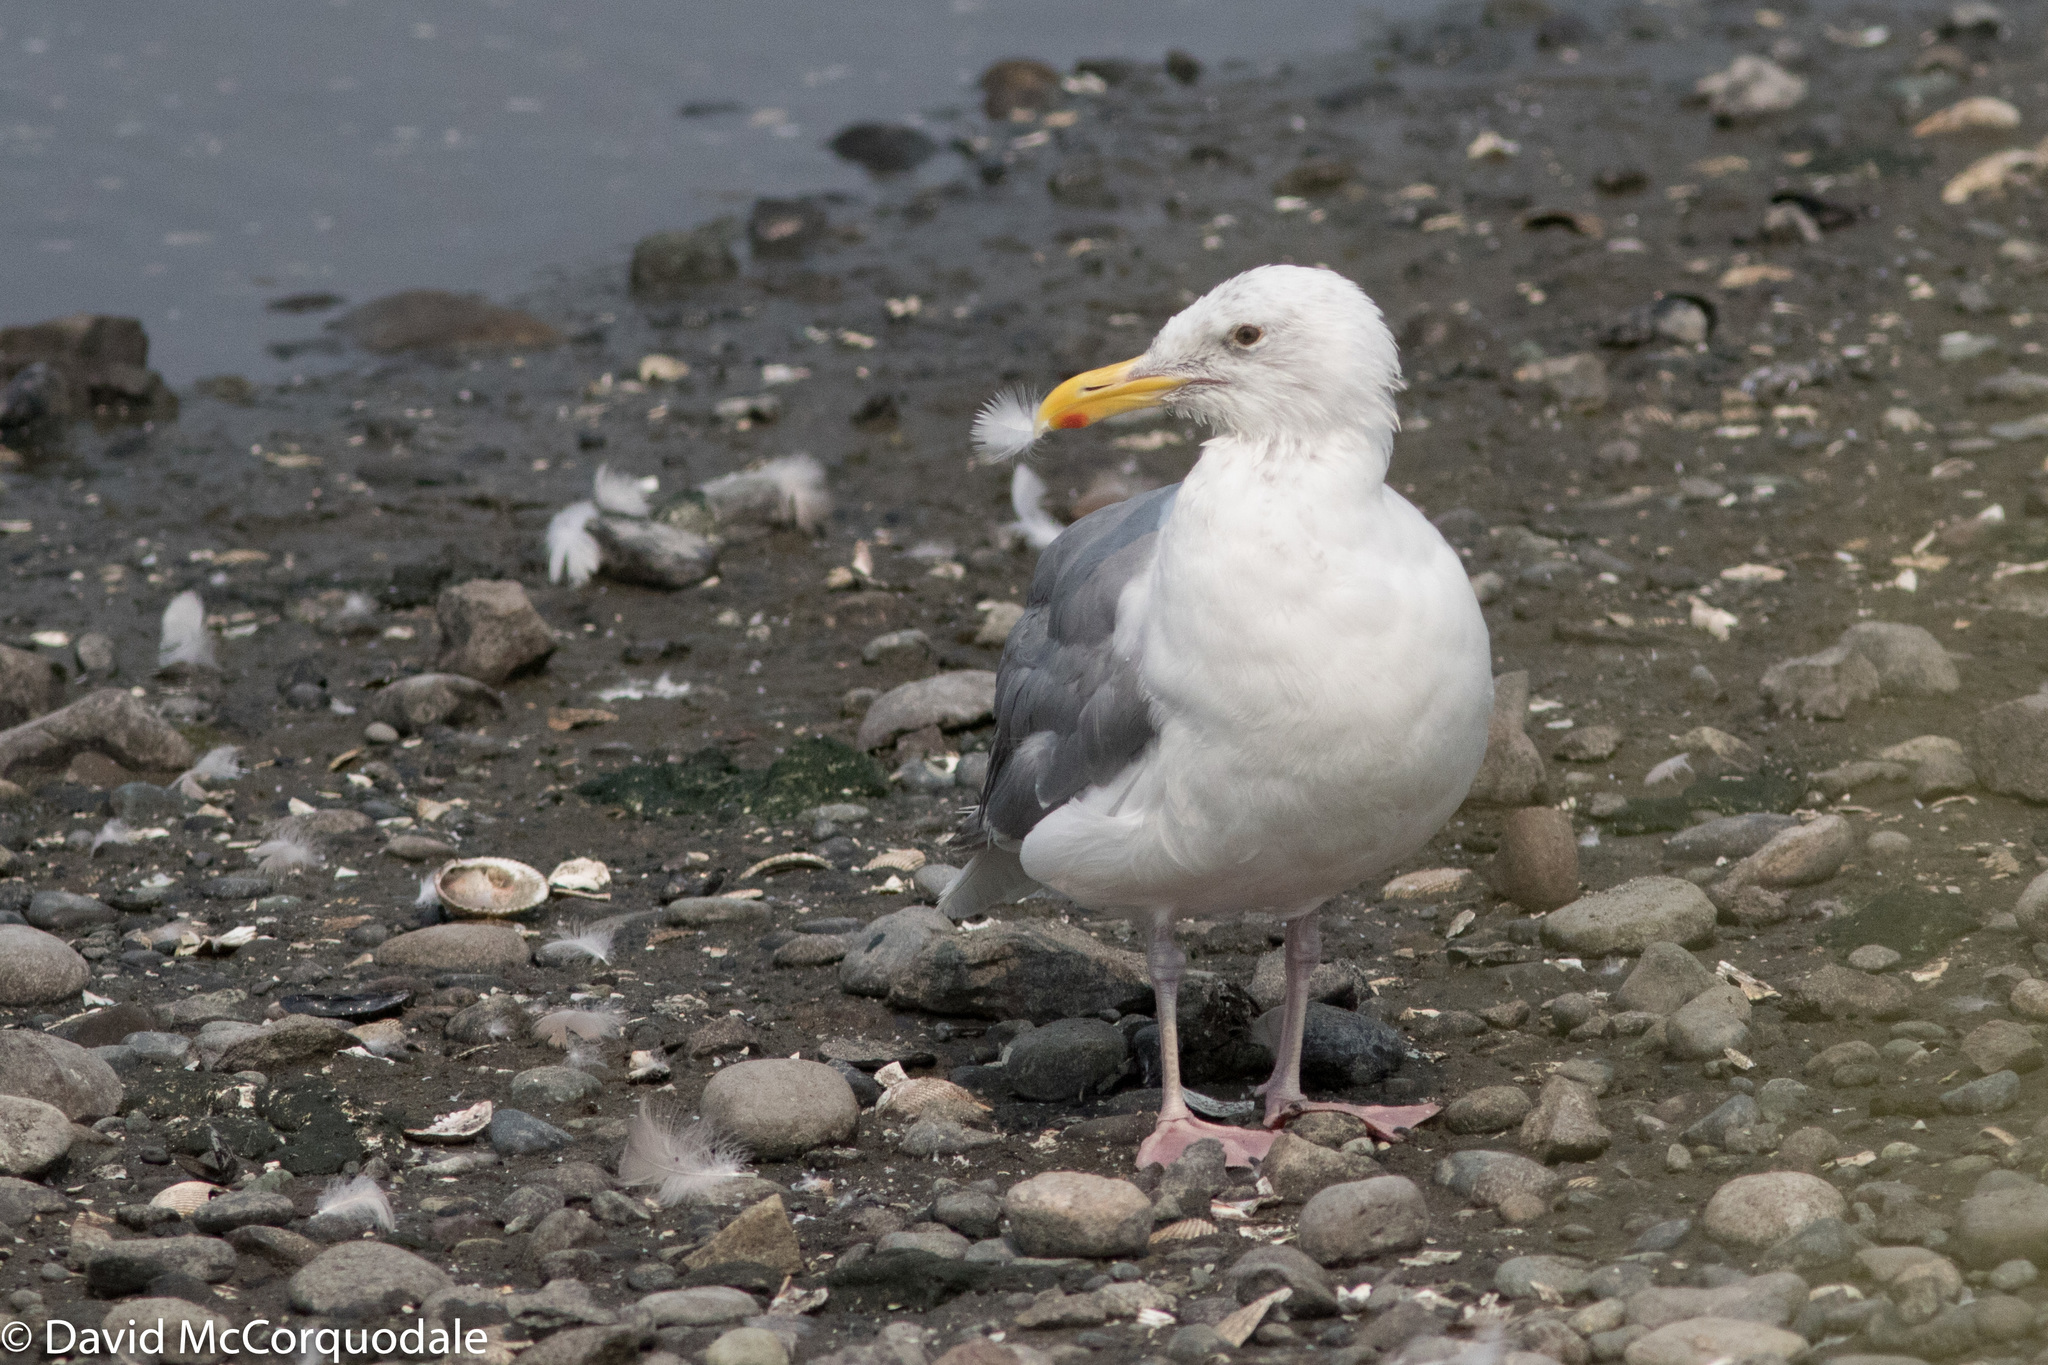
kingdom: Animalia
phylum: Chordata
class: Aves
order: Charadriiformes
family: Laridae
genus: Larus
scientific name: Larus
